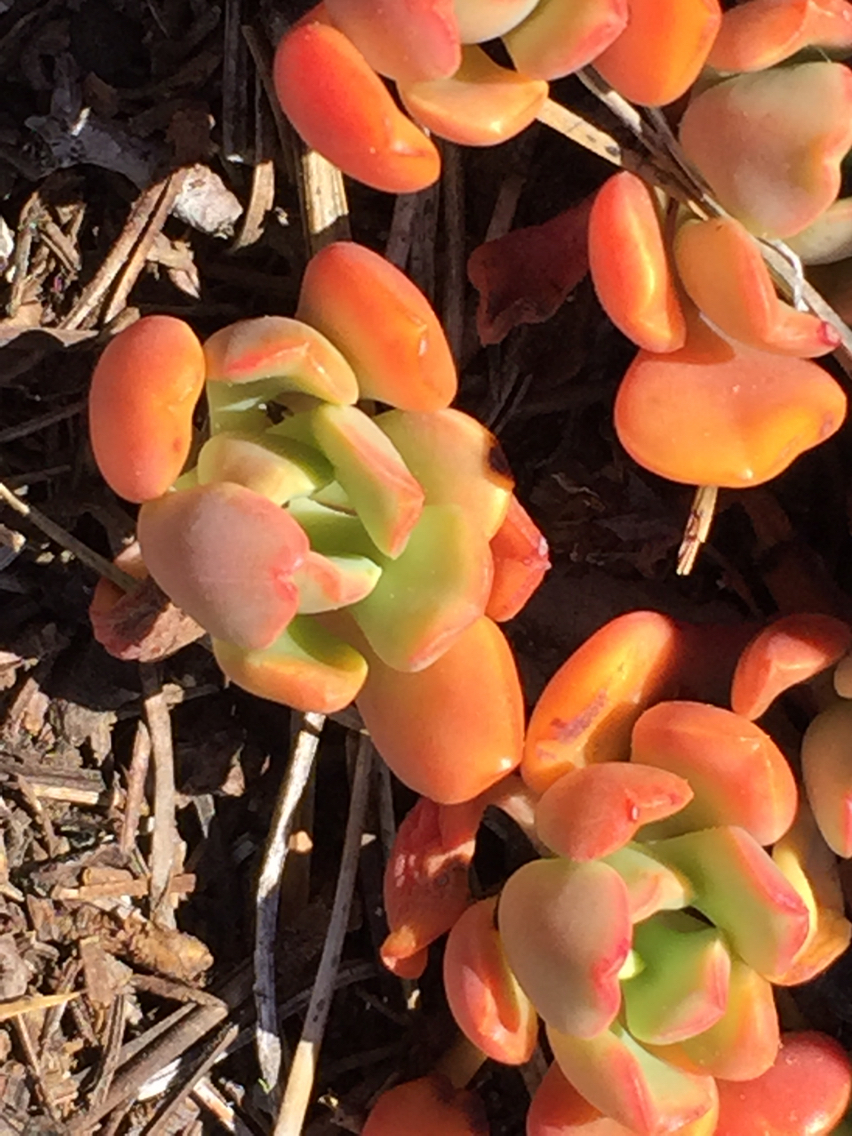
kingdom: Plantae
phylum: Tracheophyta
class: Magnoliopsida
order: Saxifragales
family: Crassulaceae
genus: Sedum
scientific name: Sedum obtusatum
